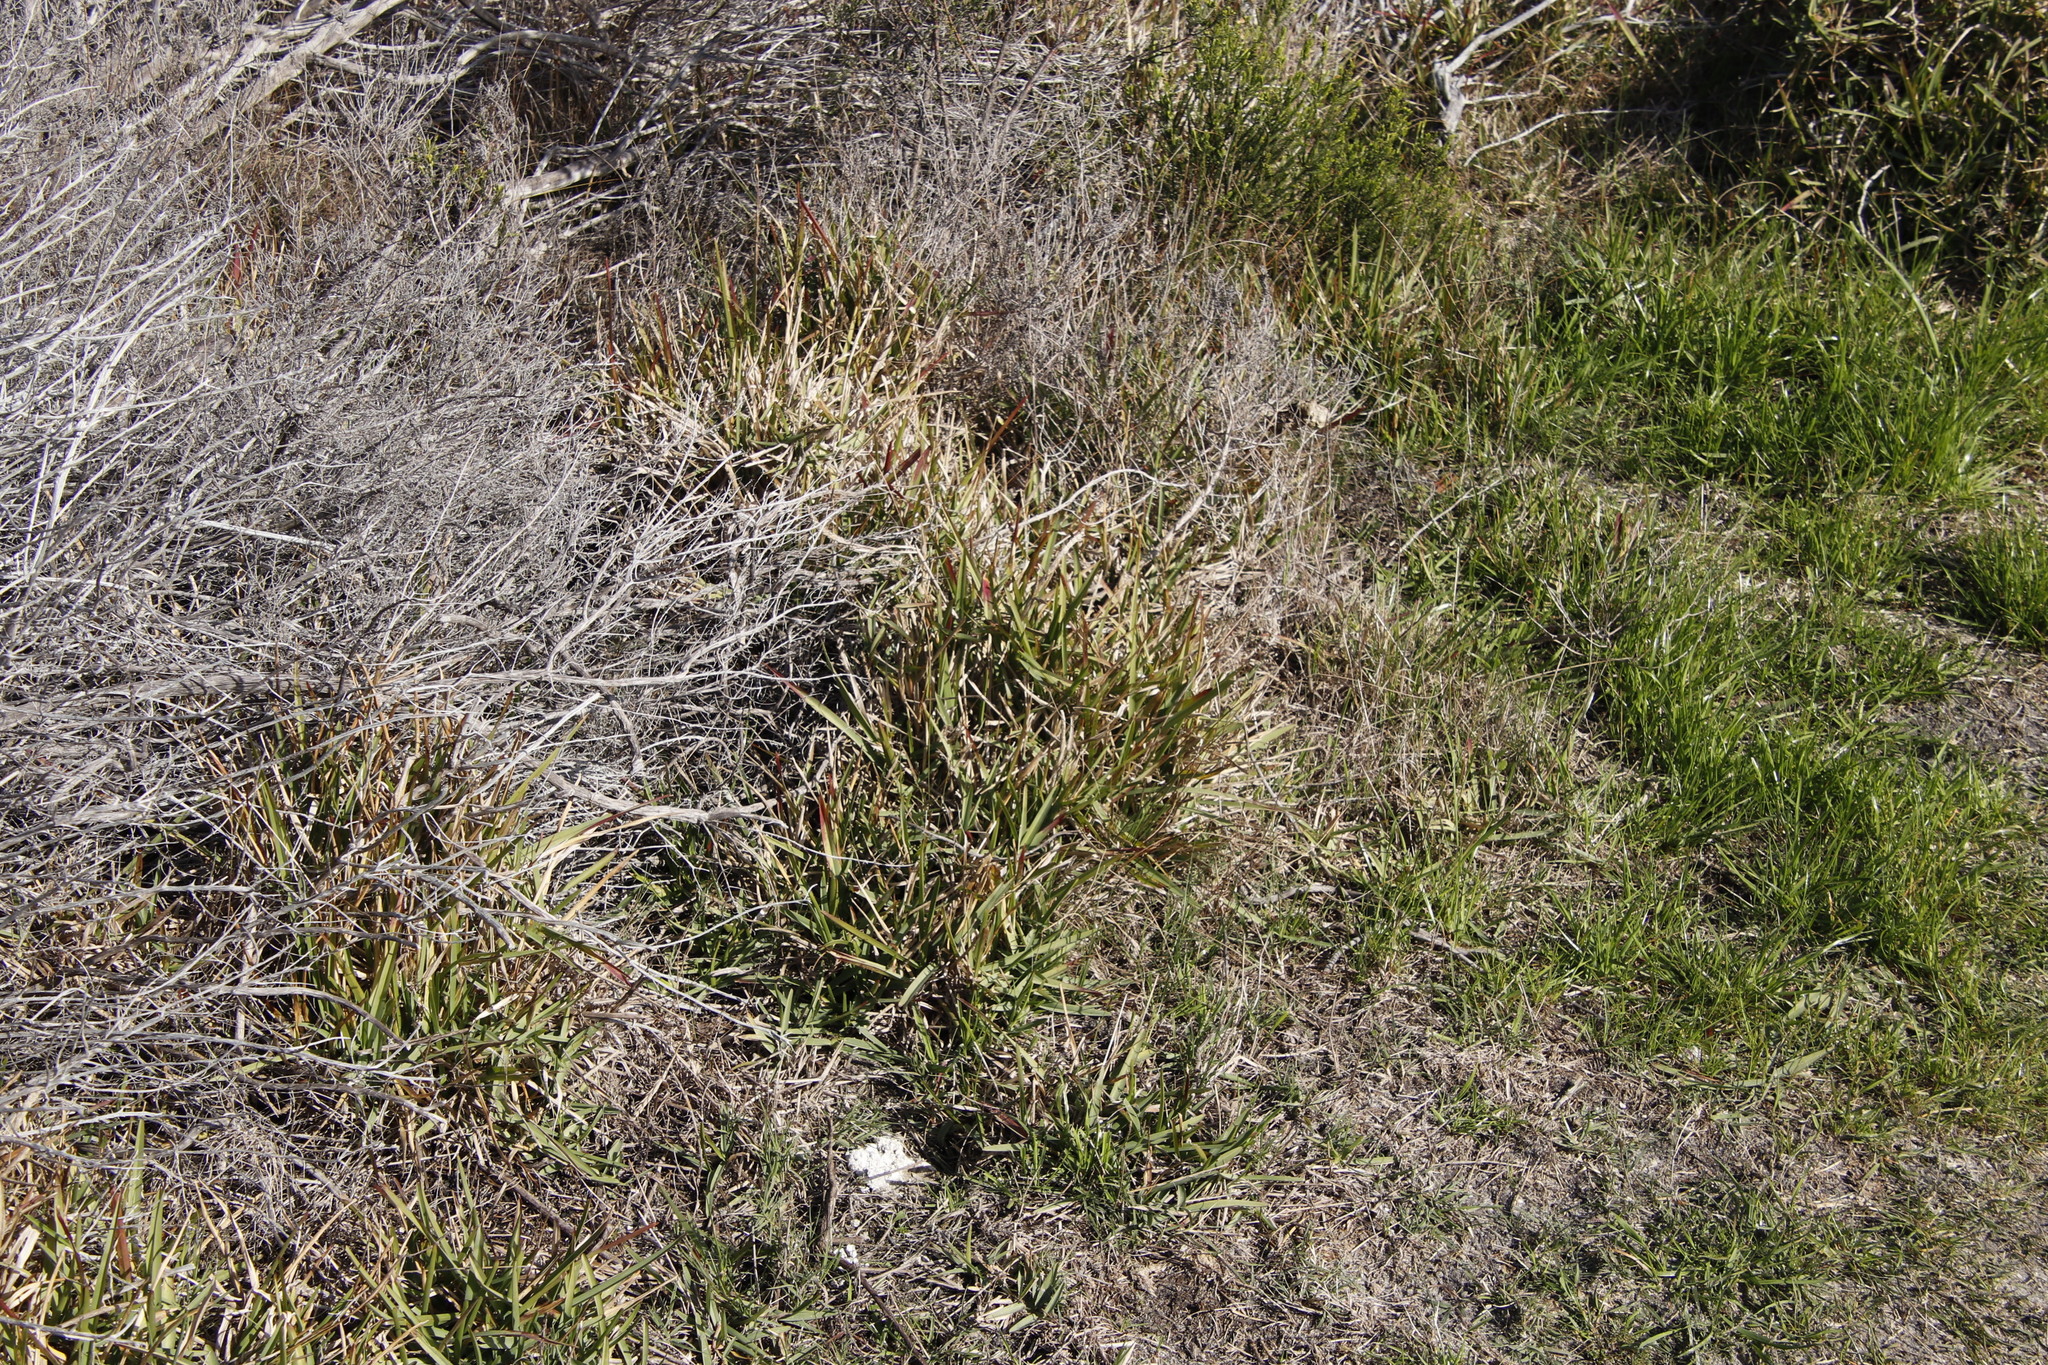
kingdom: Plantae
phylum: Tracheophyta
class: Liliopsida
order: Poales
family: Poaceae
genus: Stenotaphrum
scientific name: Stenotaphrum secundatum
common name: St. augustine grass
